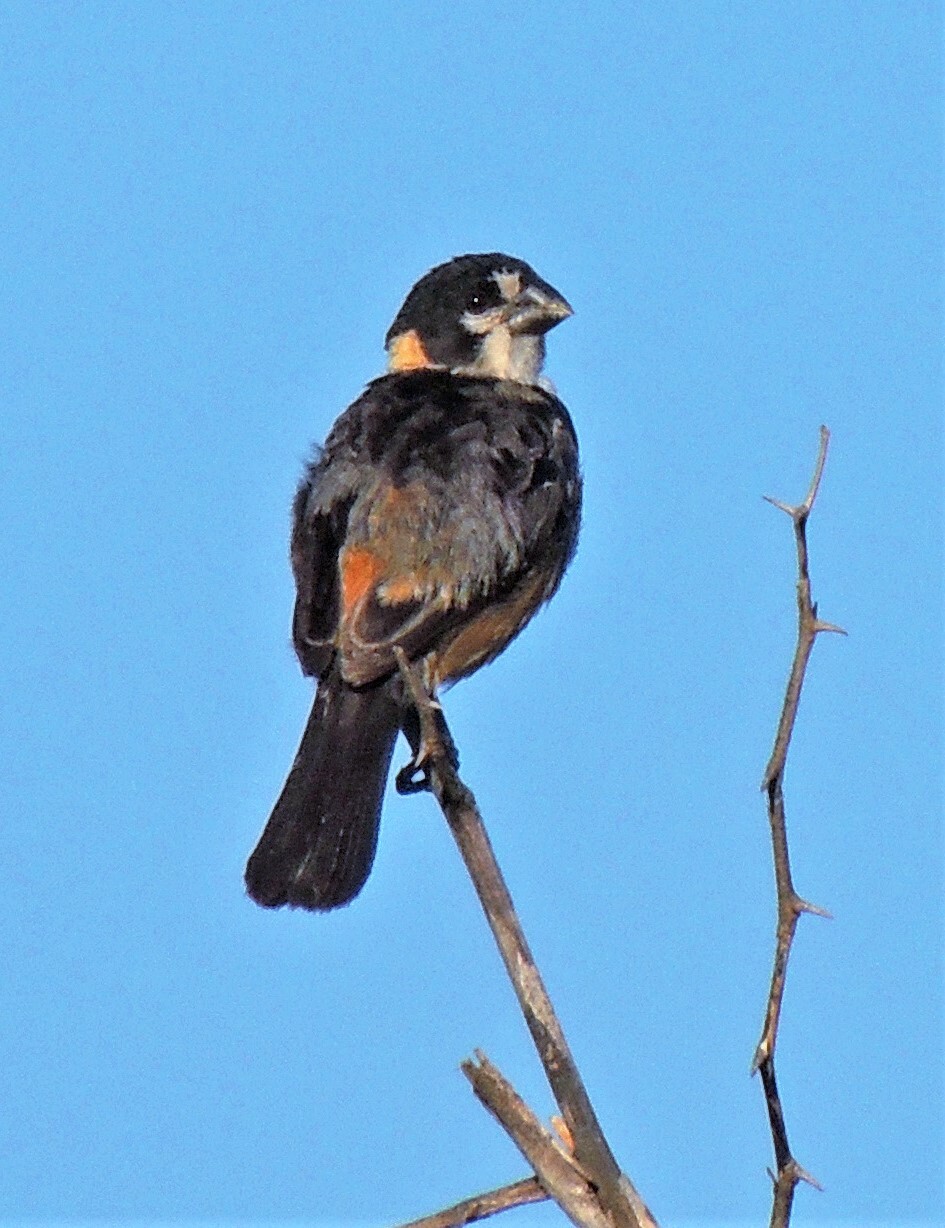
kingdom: Animalia
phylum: Chordata
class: Aves
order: Passeriformes
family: Thraupidae
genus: Sporophila
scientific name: Sporophila collaris
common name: Rusty-collared seedeater
